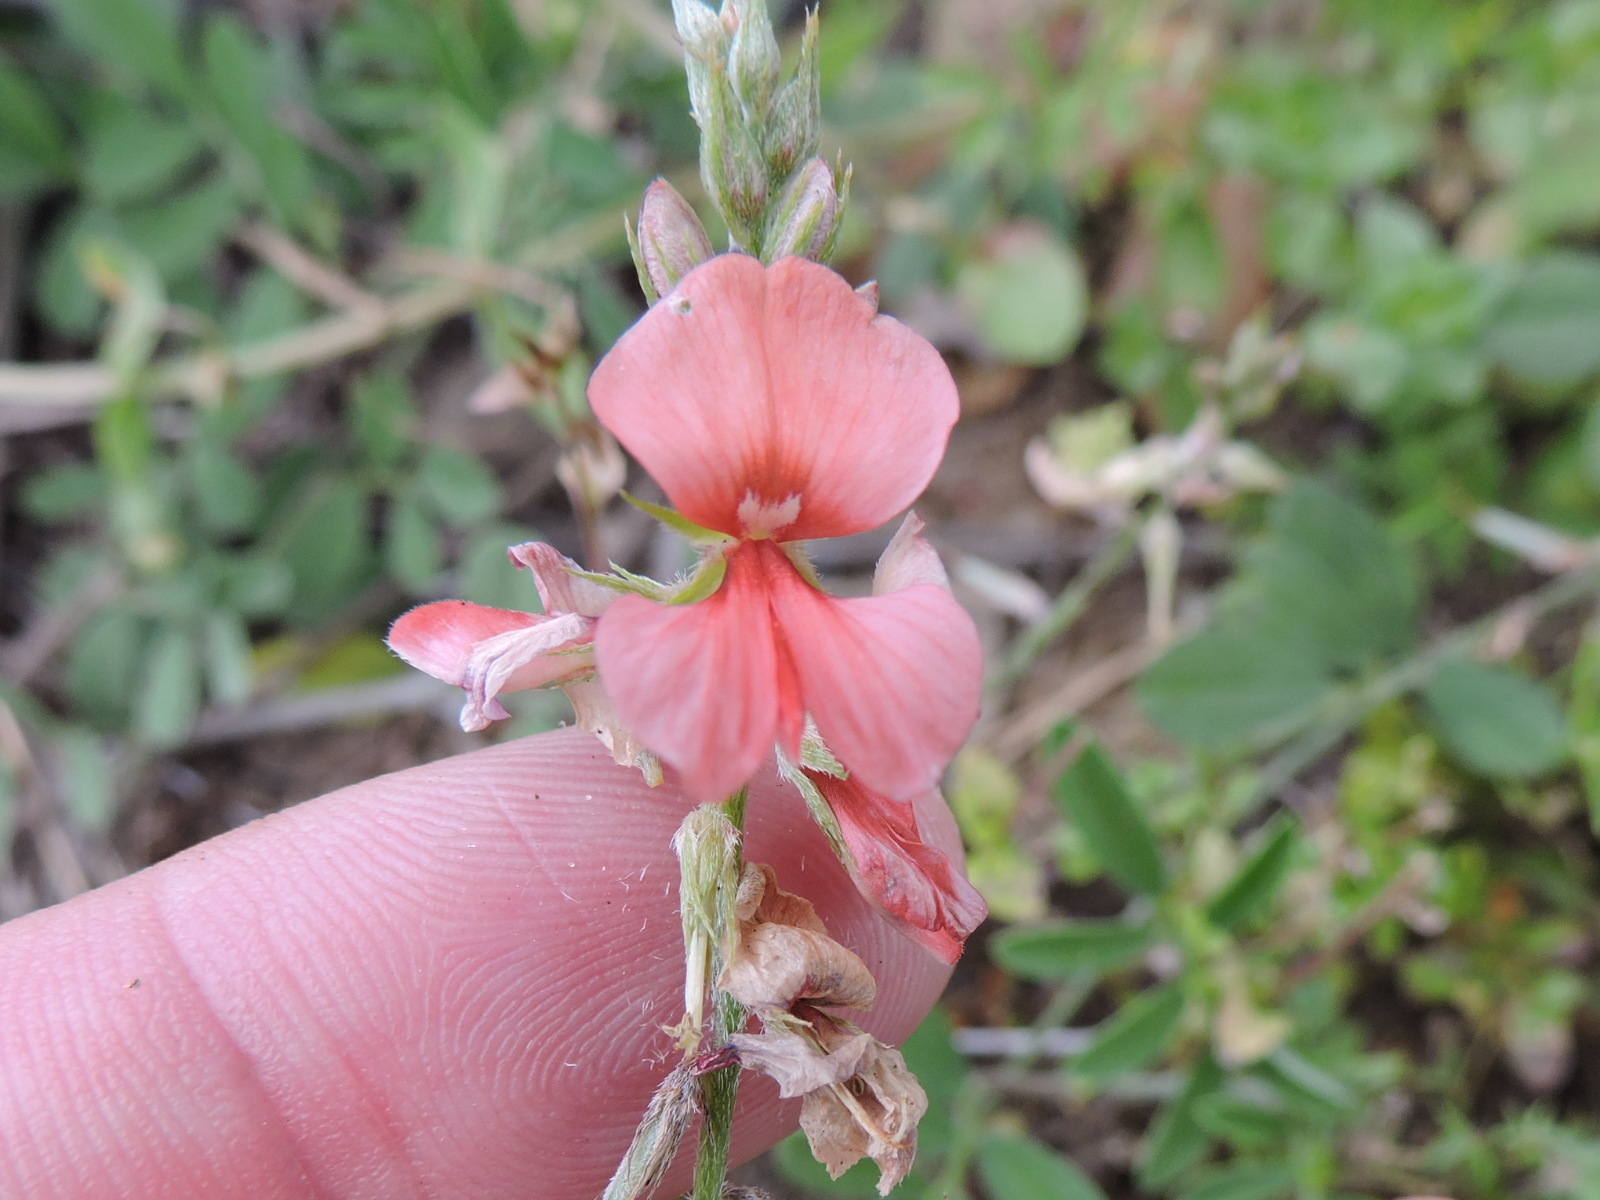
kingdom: Plantae
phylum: Tracheophyta
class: Magnoliopsida
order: Fabales
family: Fabaceae
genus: Indigofera
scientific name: Indigofera miniata
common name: Coast indigo
